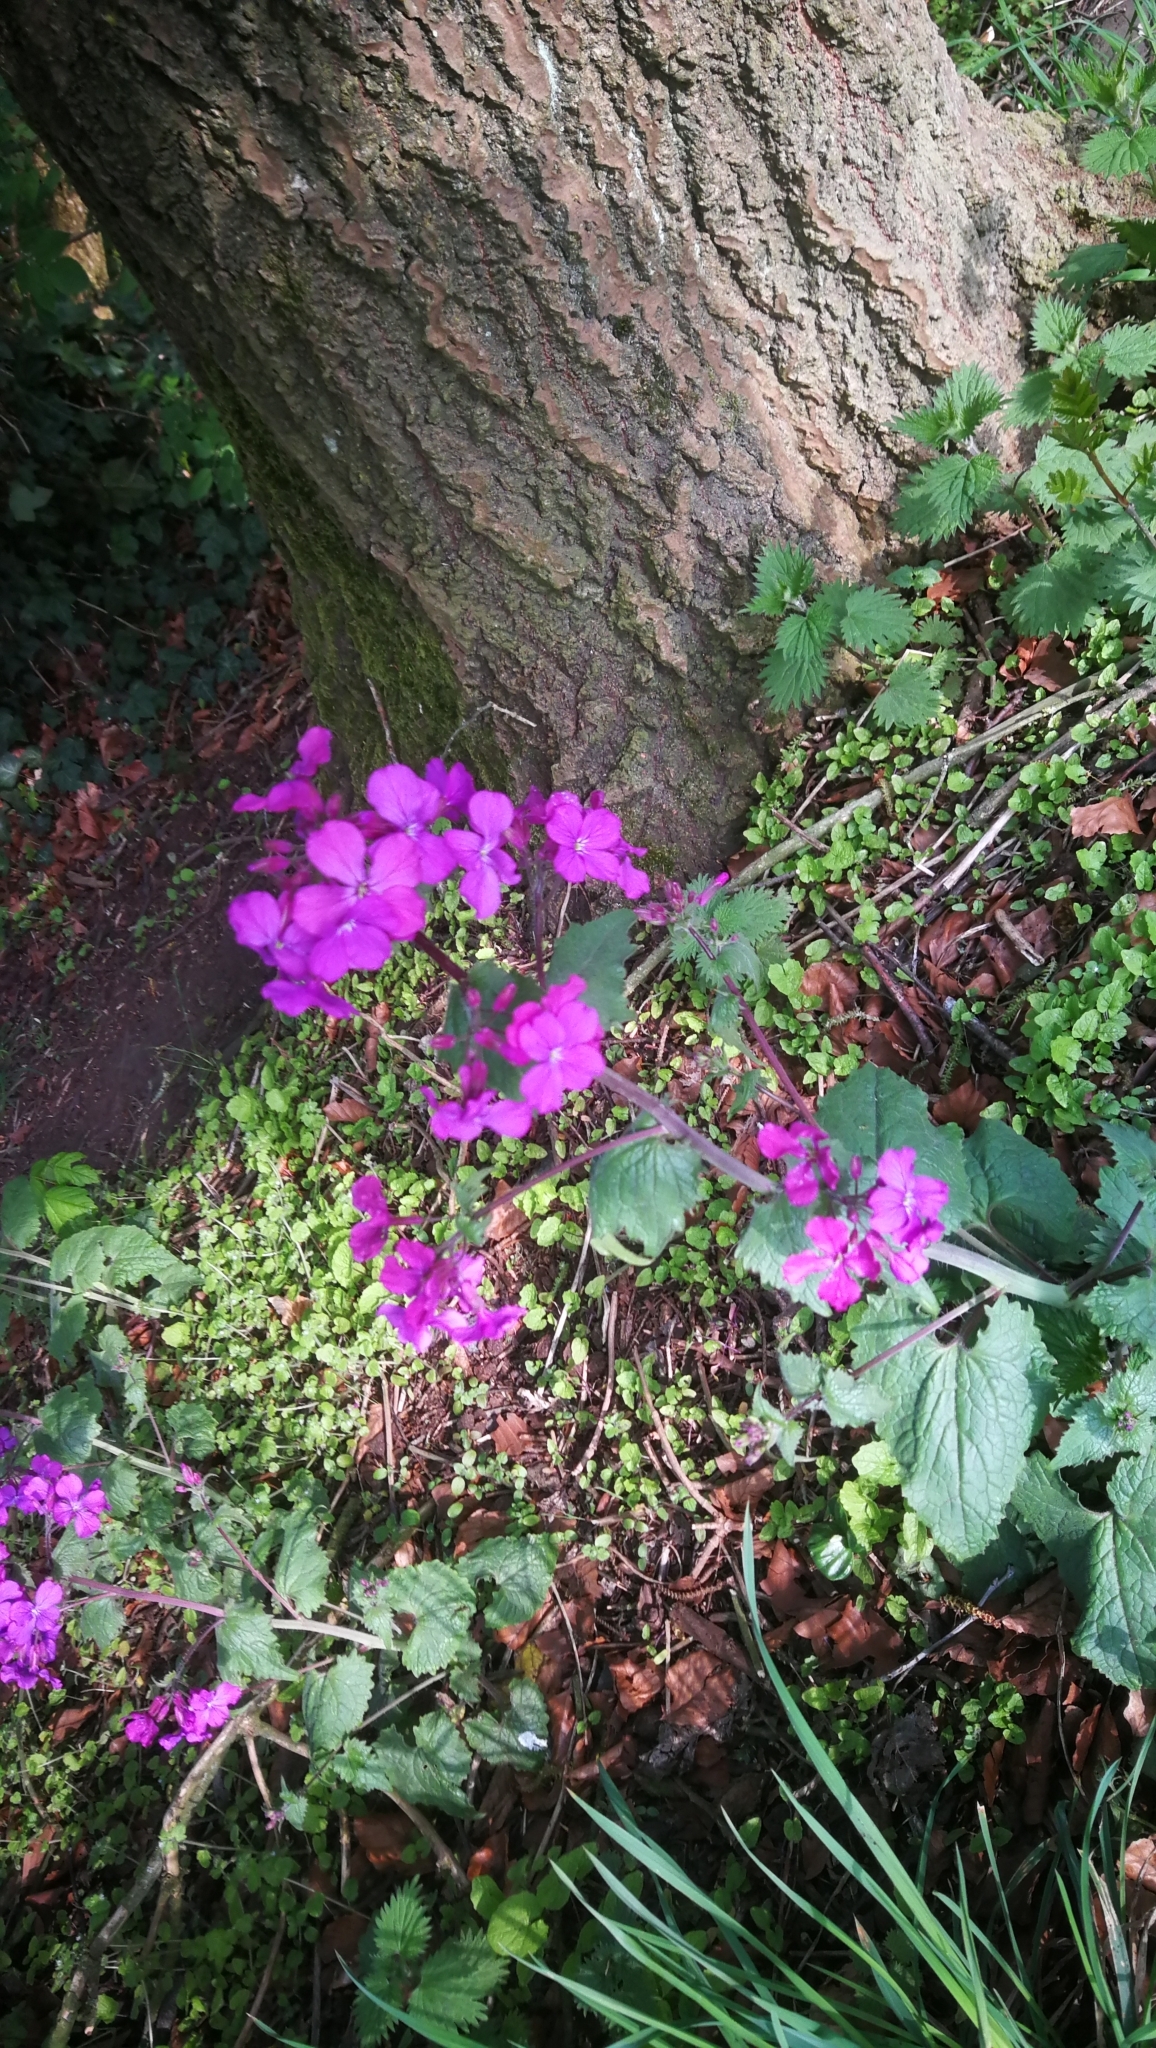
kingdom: Plantae
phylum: Tracheophyta
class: Magnoliopsida
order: Brassicales
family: Brassicaceae
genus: Lunaria
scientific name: Lunaria annua
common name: Honesty
